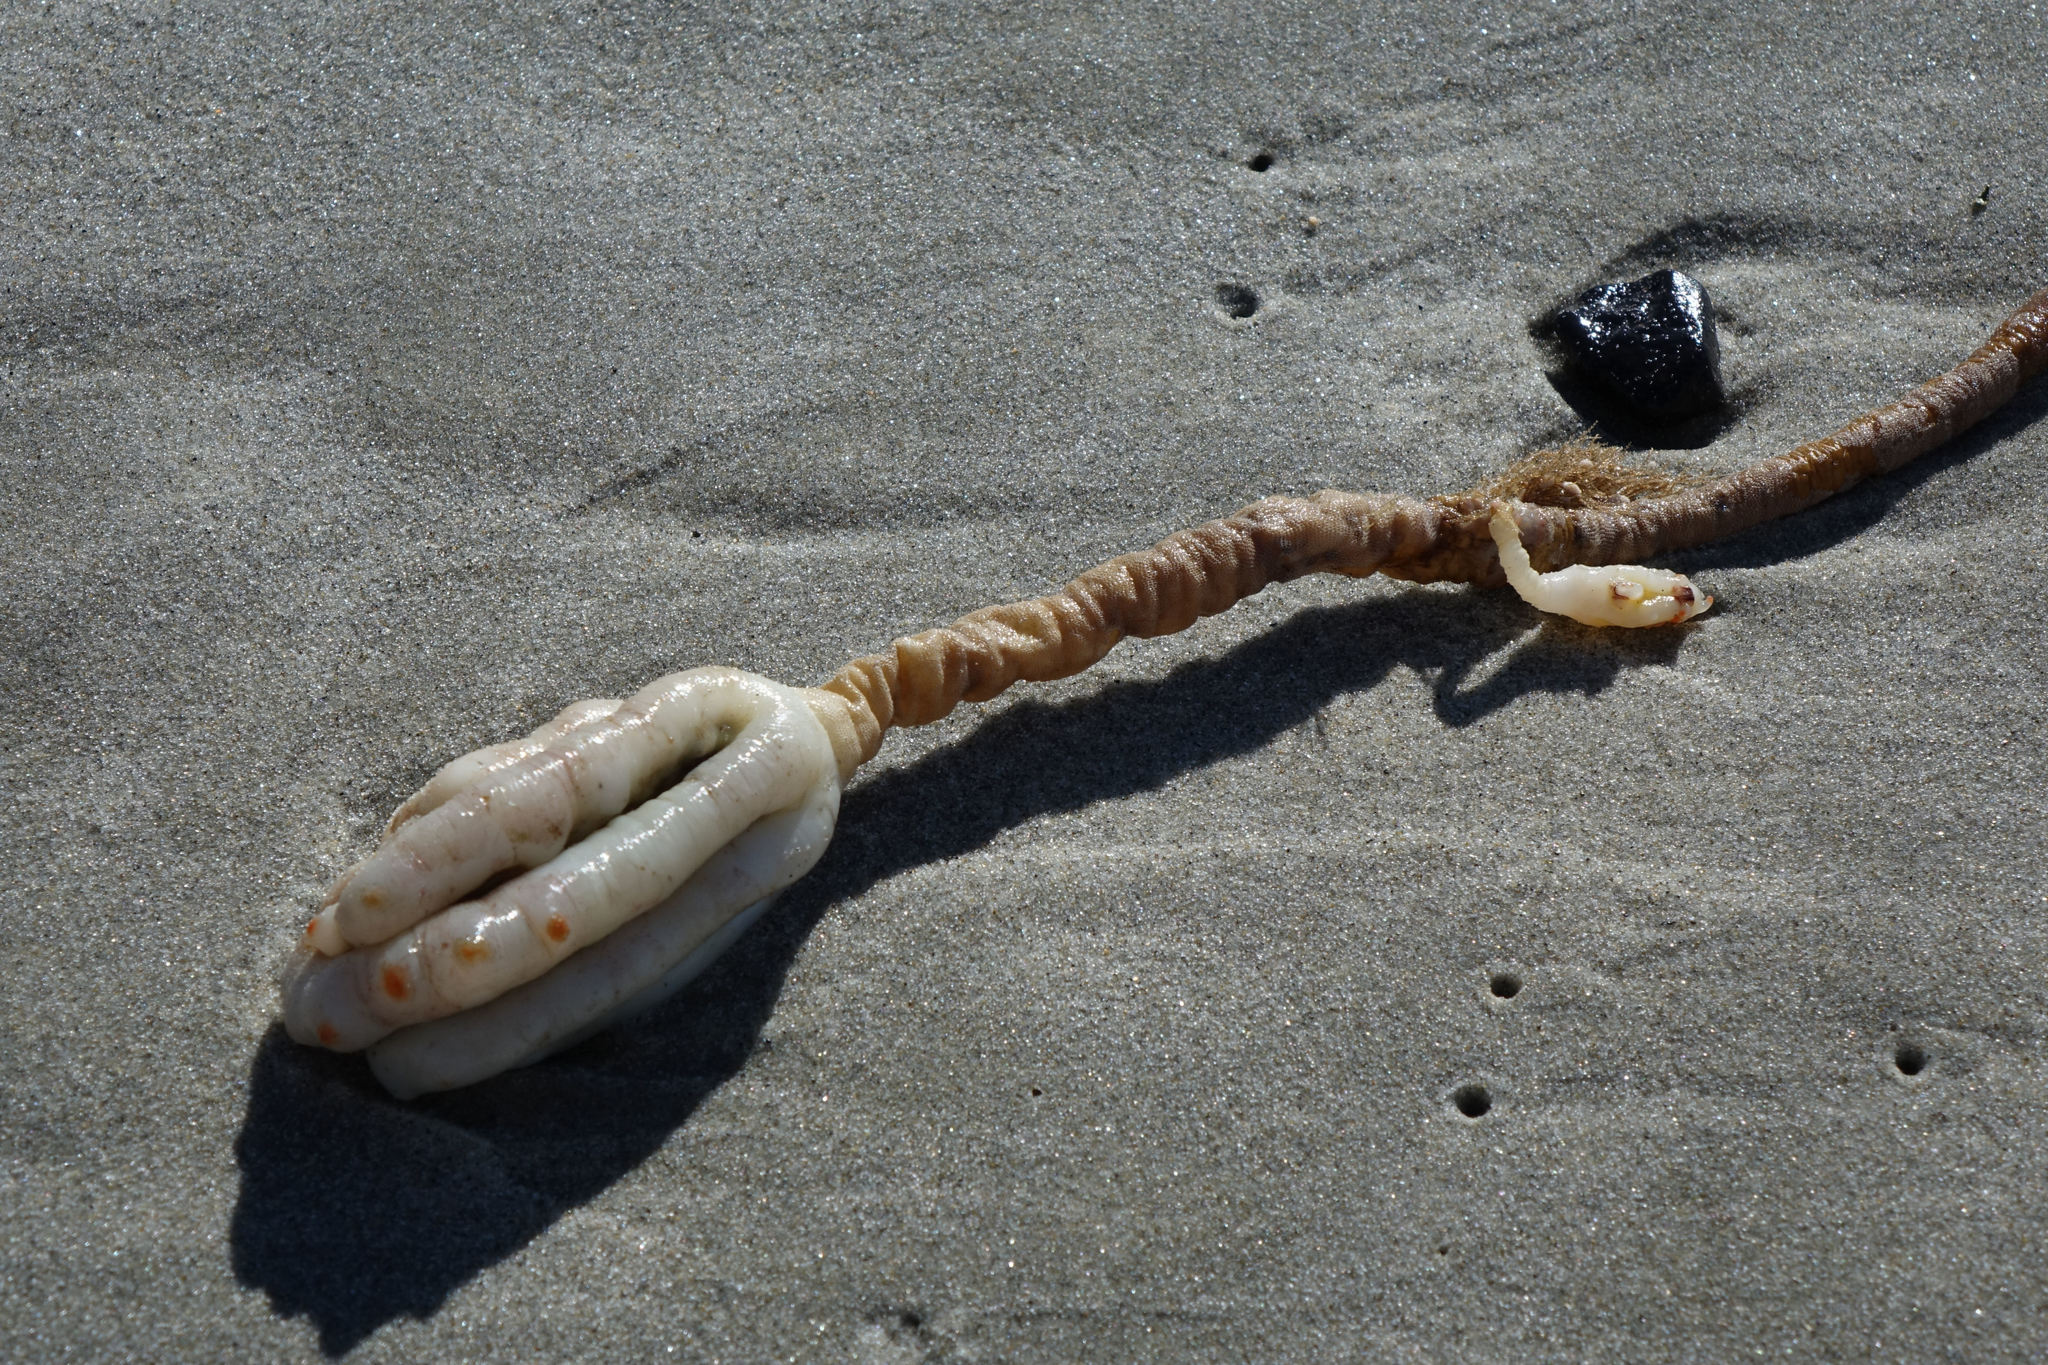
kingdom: Animalia
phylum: Chordata
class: Ascidiacea
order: Stolidobranchia
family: Pyuridae
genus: Pyura
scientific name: Pyura pachydermatina
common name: Sea tulip
